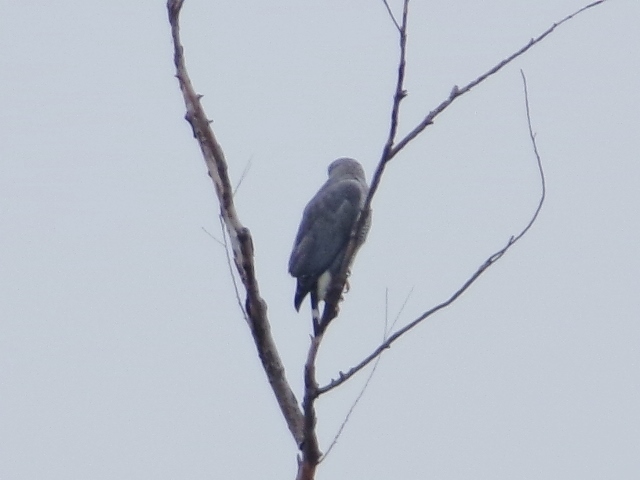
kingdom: Animalia
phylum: Chordata
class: Aves
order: Accipitriformes
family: Accipitridae
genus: Buteo
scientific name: Buteo nitidus
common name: Grey-lined hawk
